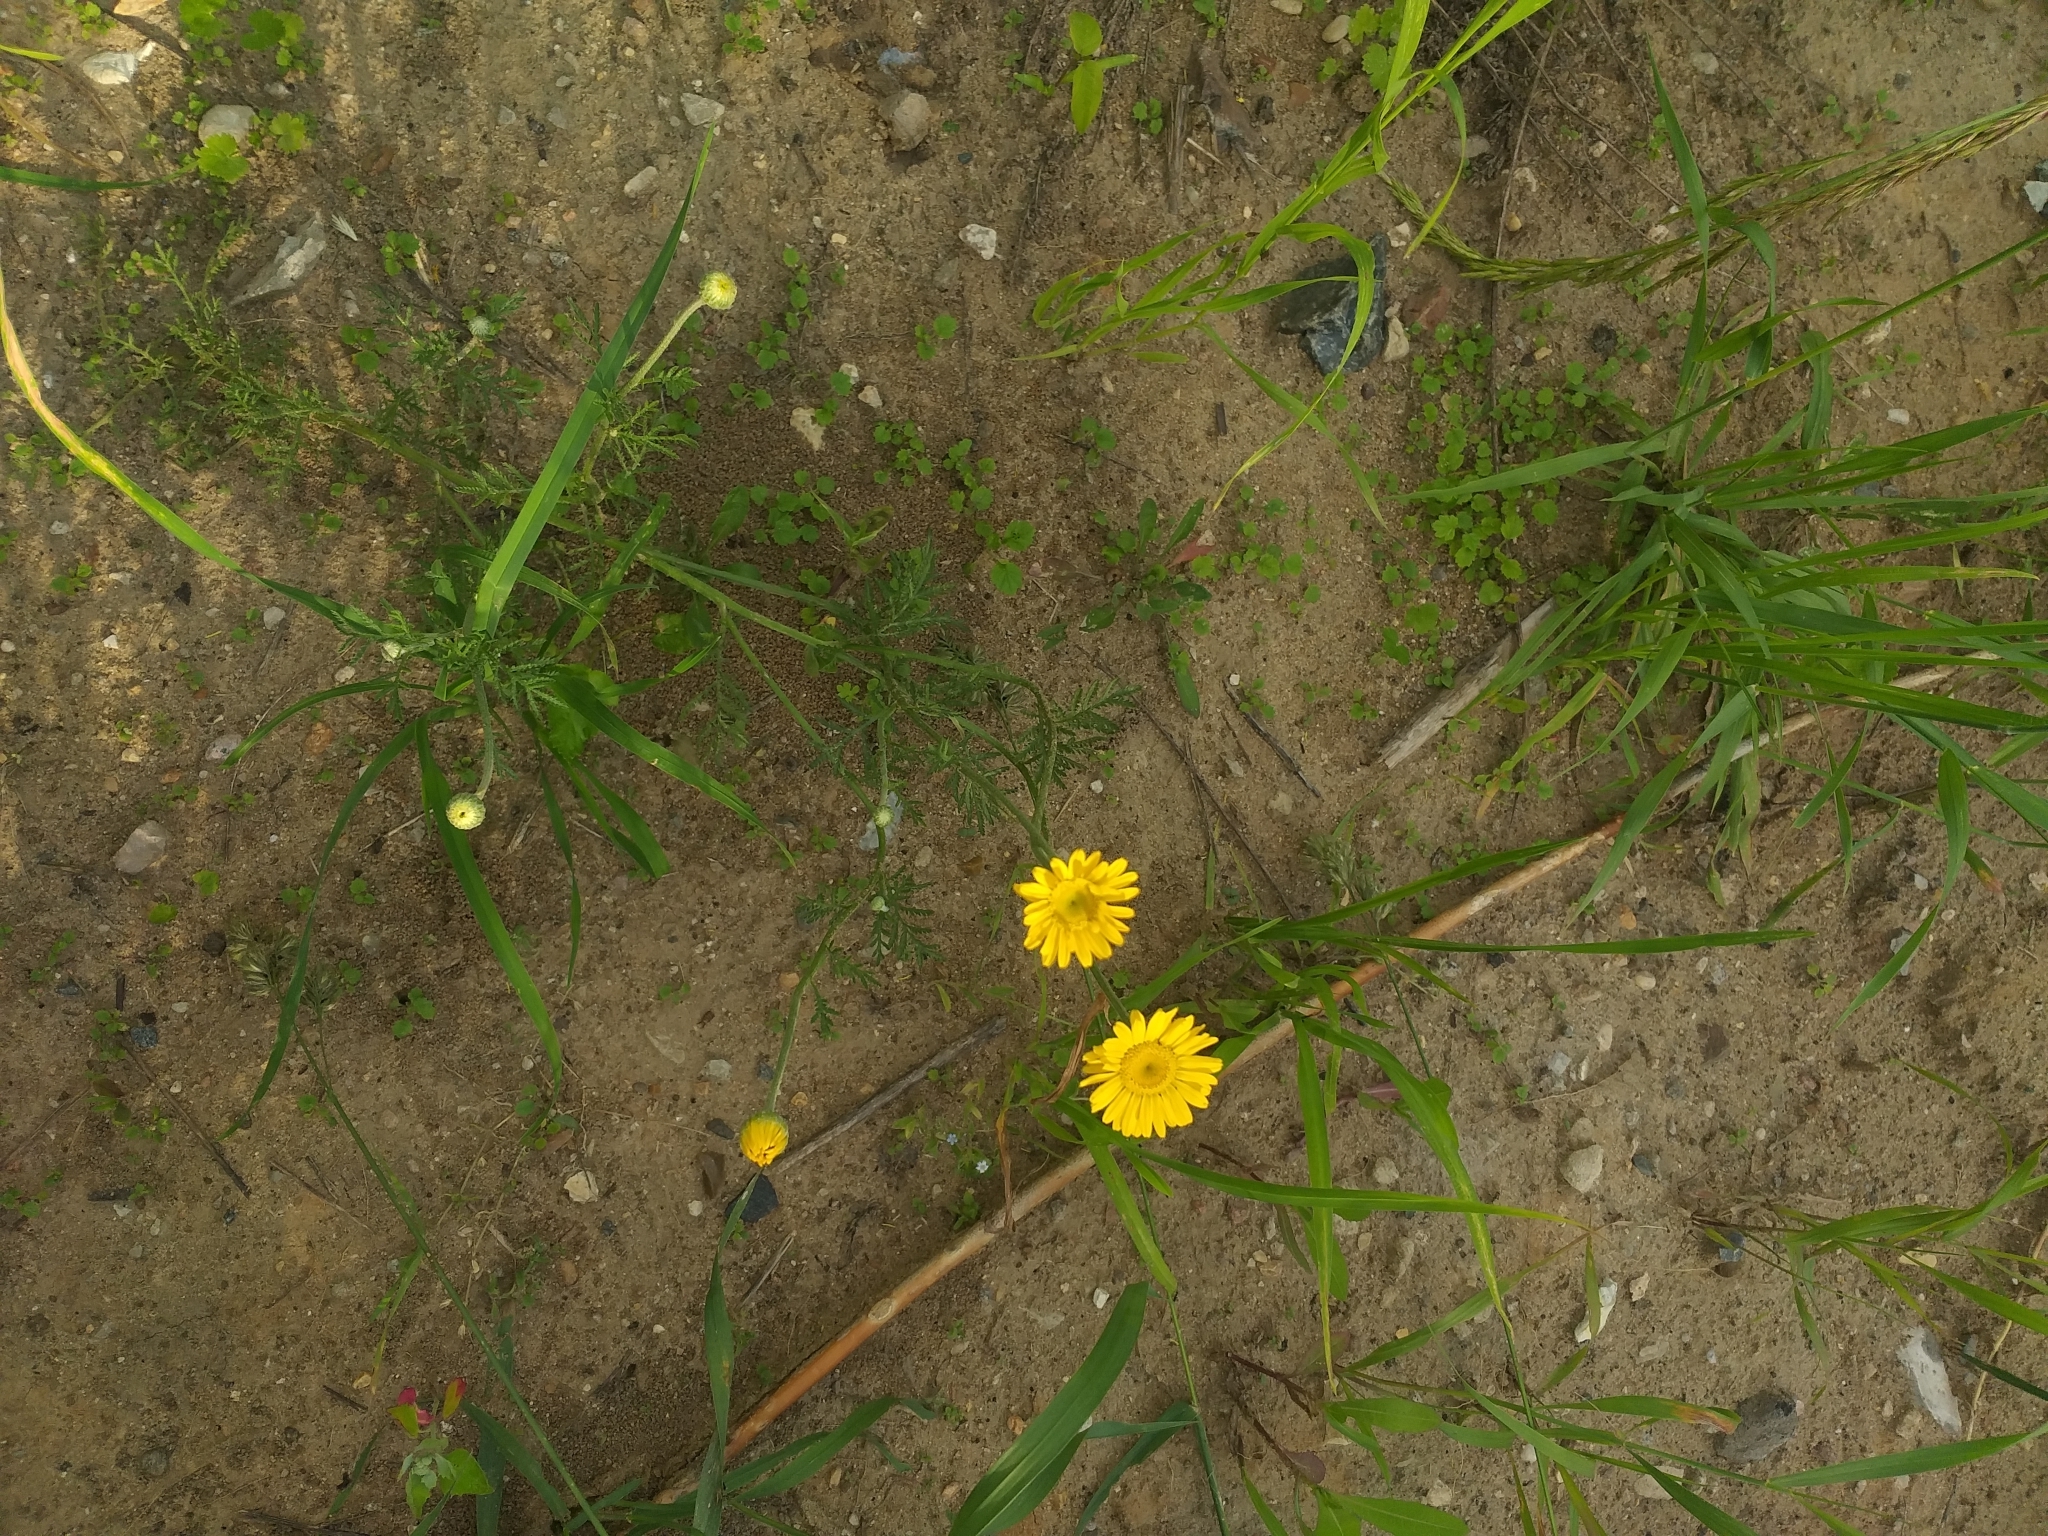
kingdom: Plantae
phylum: Tracheophyta
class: Magnoliopsida
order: Asterales
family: Asteraceae
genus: Cota
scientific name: Cota tinctoria
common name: Golden chamomile
